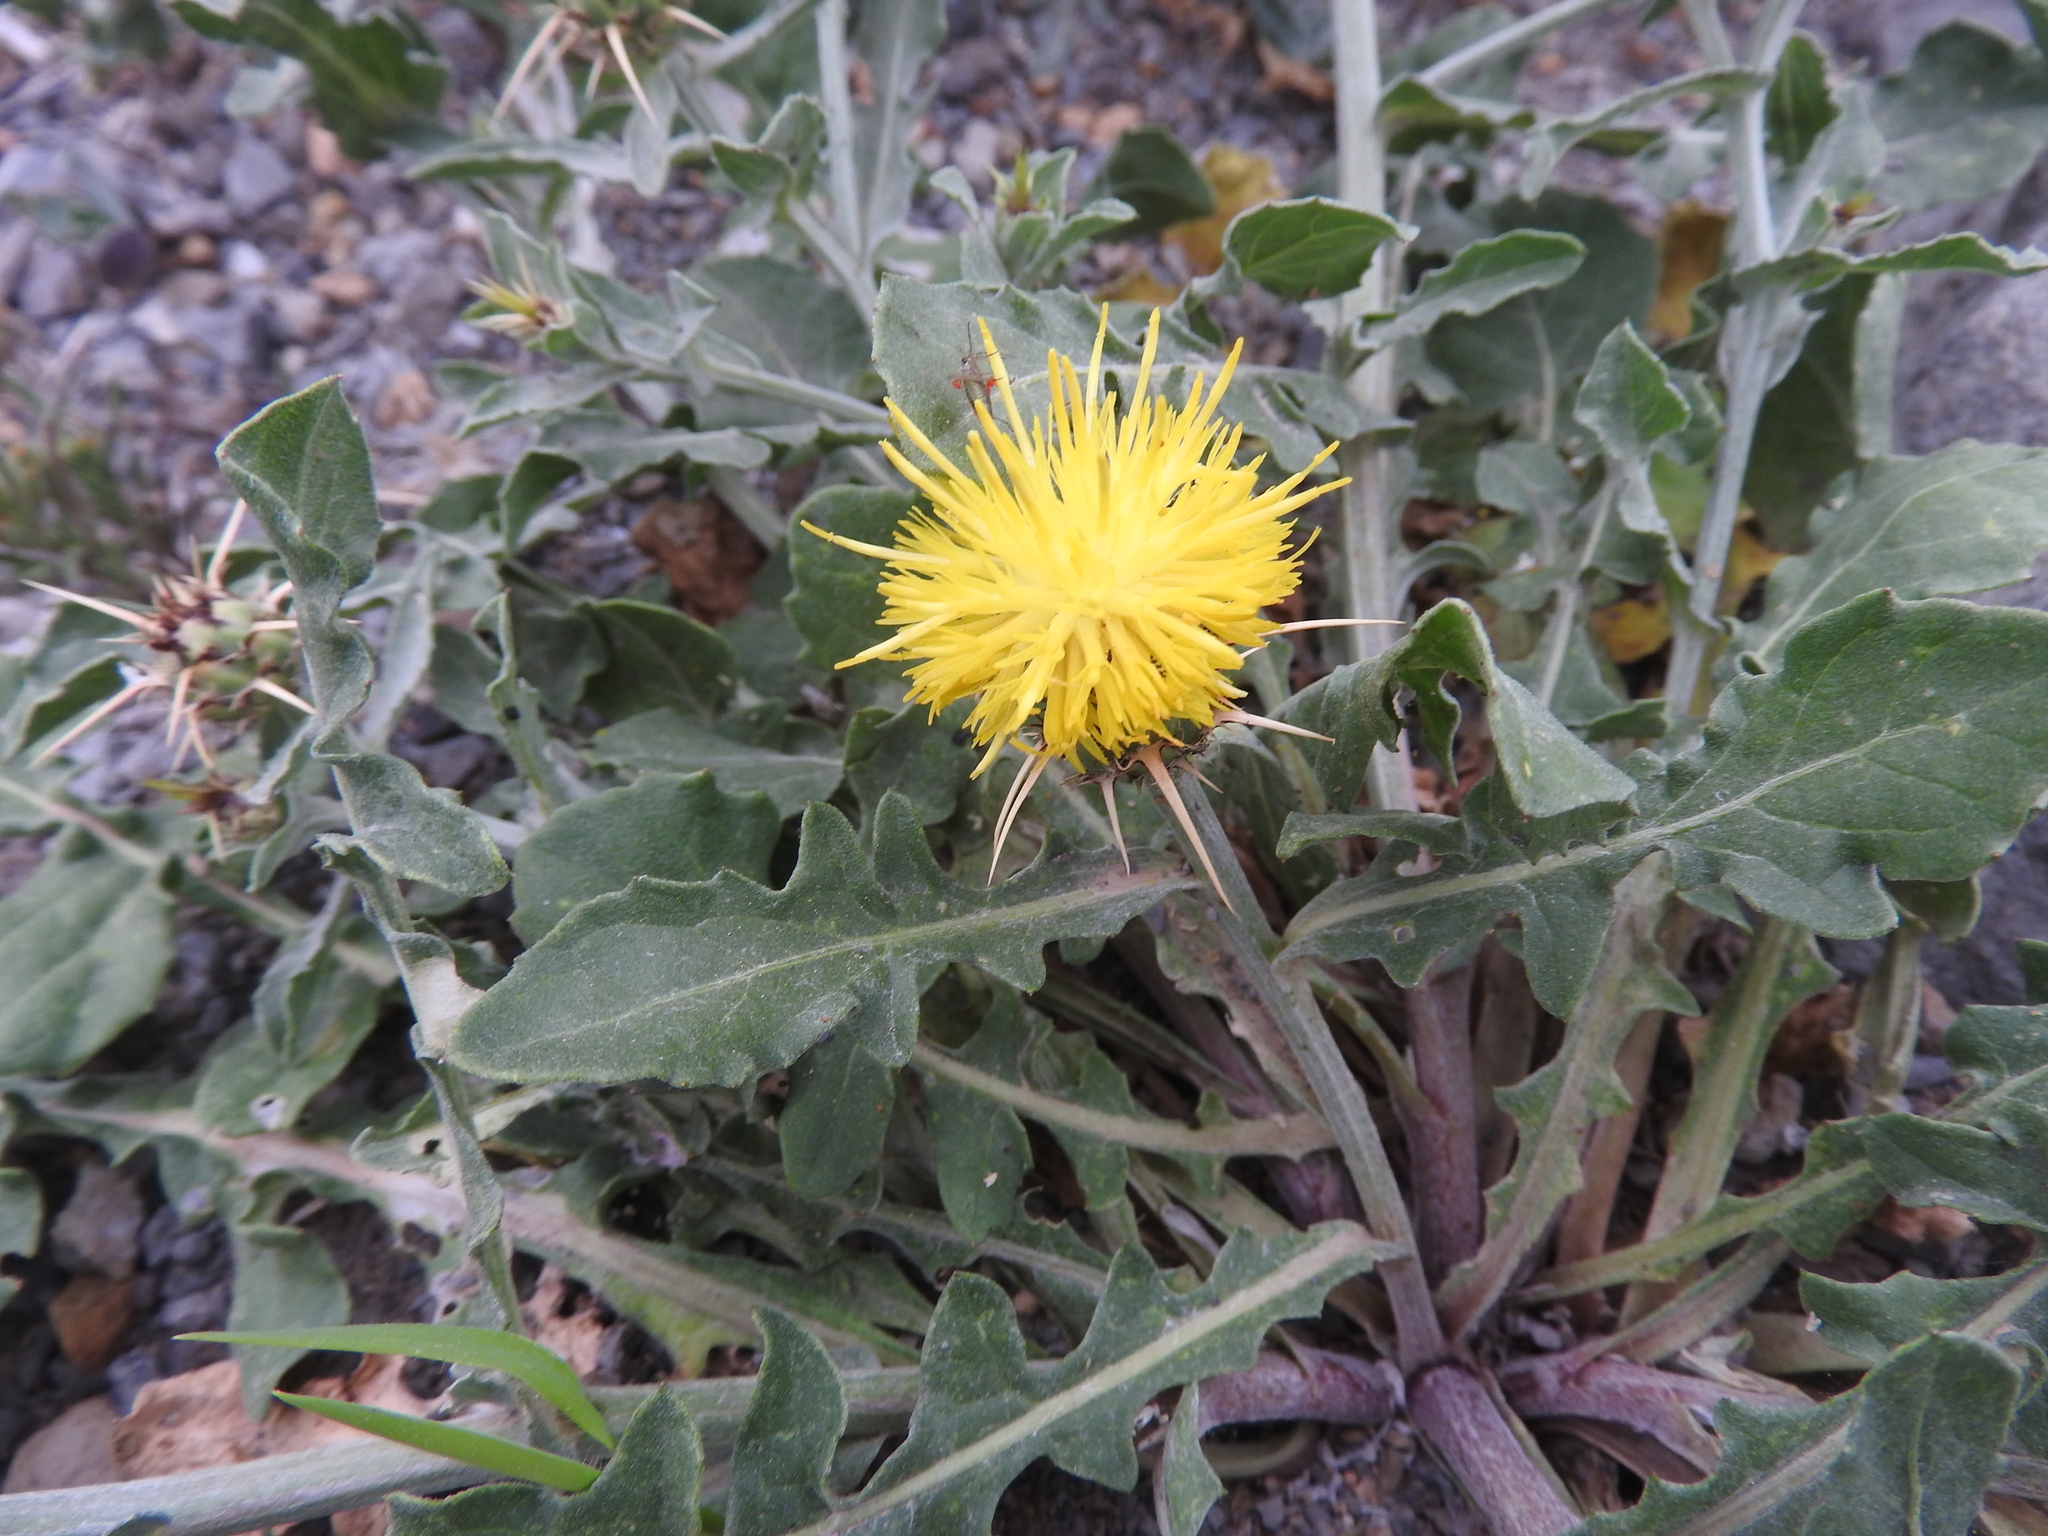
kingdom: Plantae
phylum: Tracheophyta
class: Magnoliopsida
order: Asterales
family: Asteraceae
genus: Centaurea
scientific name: Centaurea pubescens
